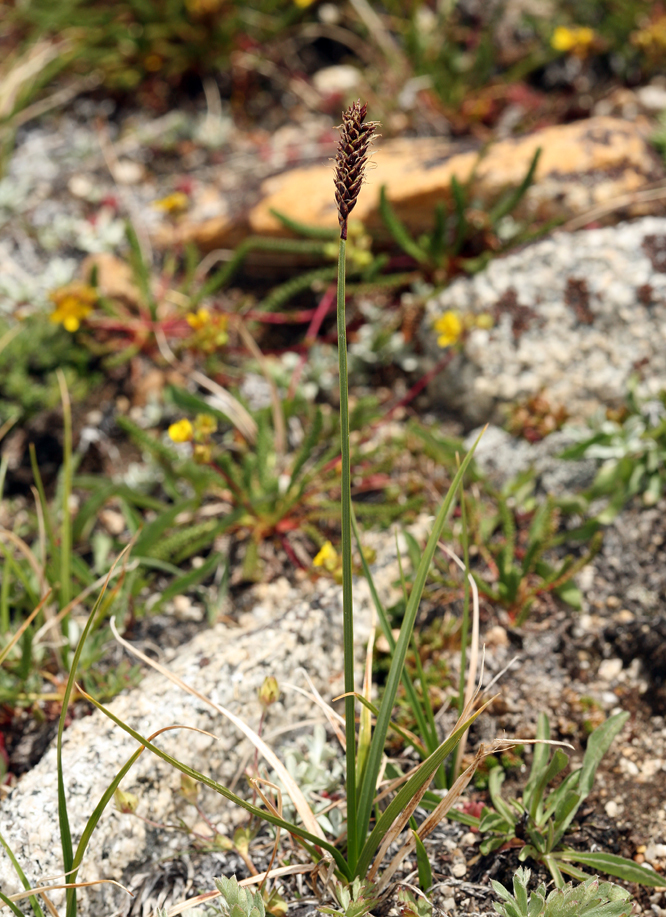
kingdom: Plantae
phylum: Tracheophyta
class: Liliopsida
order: Poales
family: Cyperaceae
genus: Carex
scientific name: Carex scirpoidea
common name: Canada single-spike sedge
